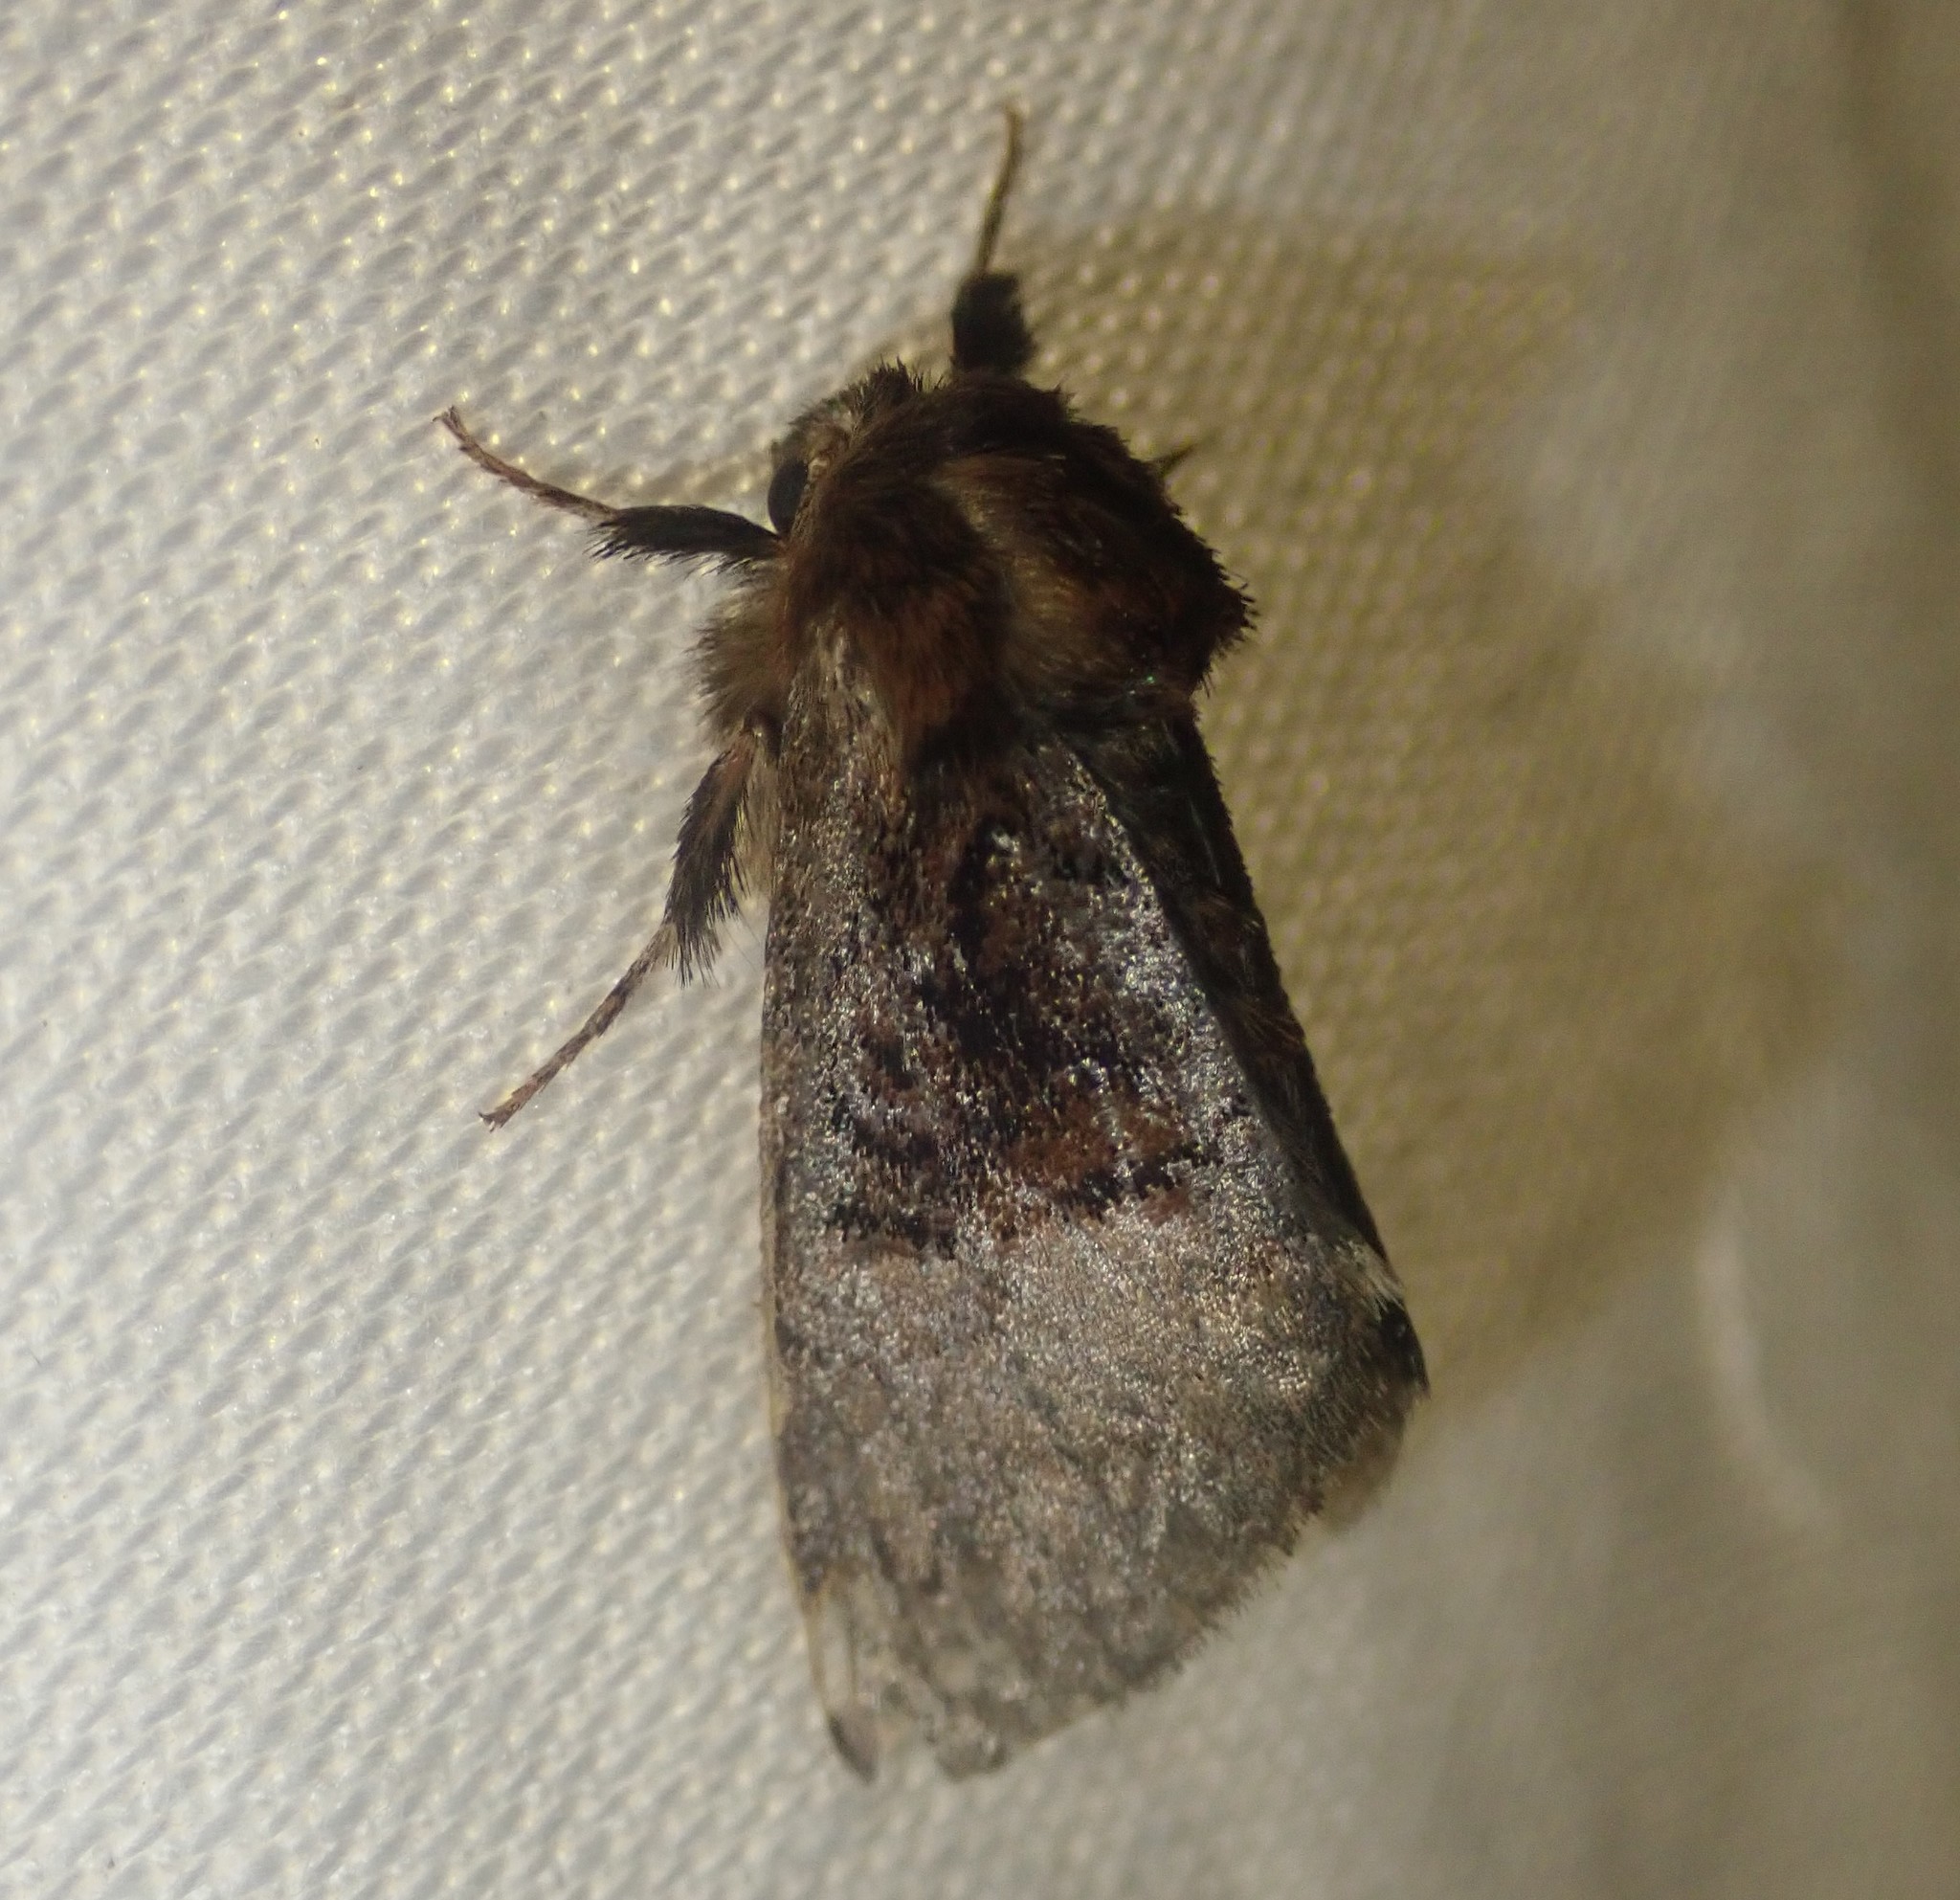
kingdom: Animalia
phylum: Arthropoda
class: Insecta
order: Lepidoptera
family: Noctuidae
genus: Colocasia
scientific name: Colocasia coryli
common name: Nut-tree tussock
